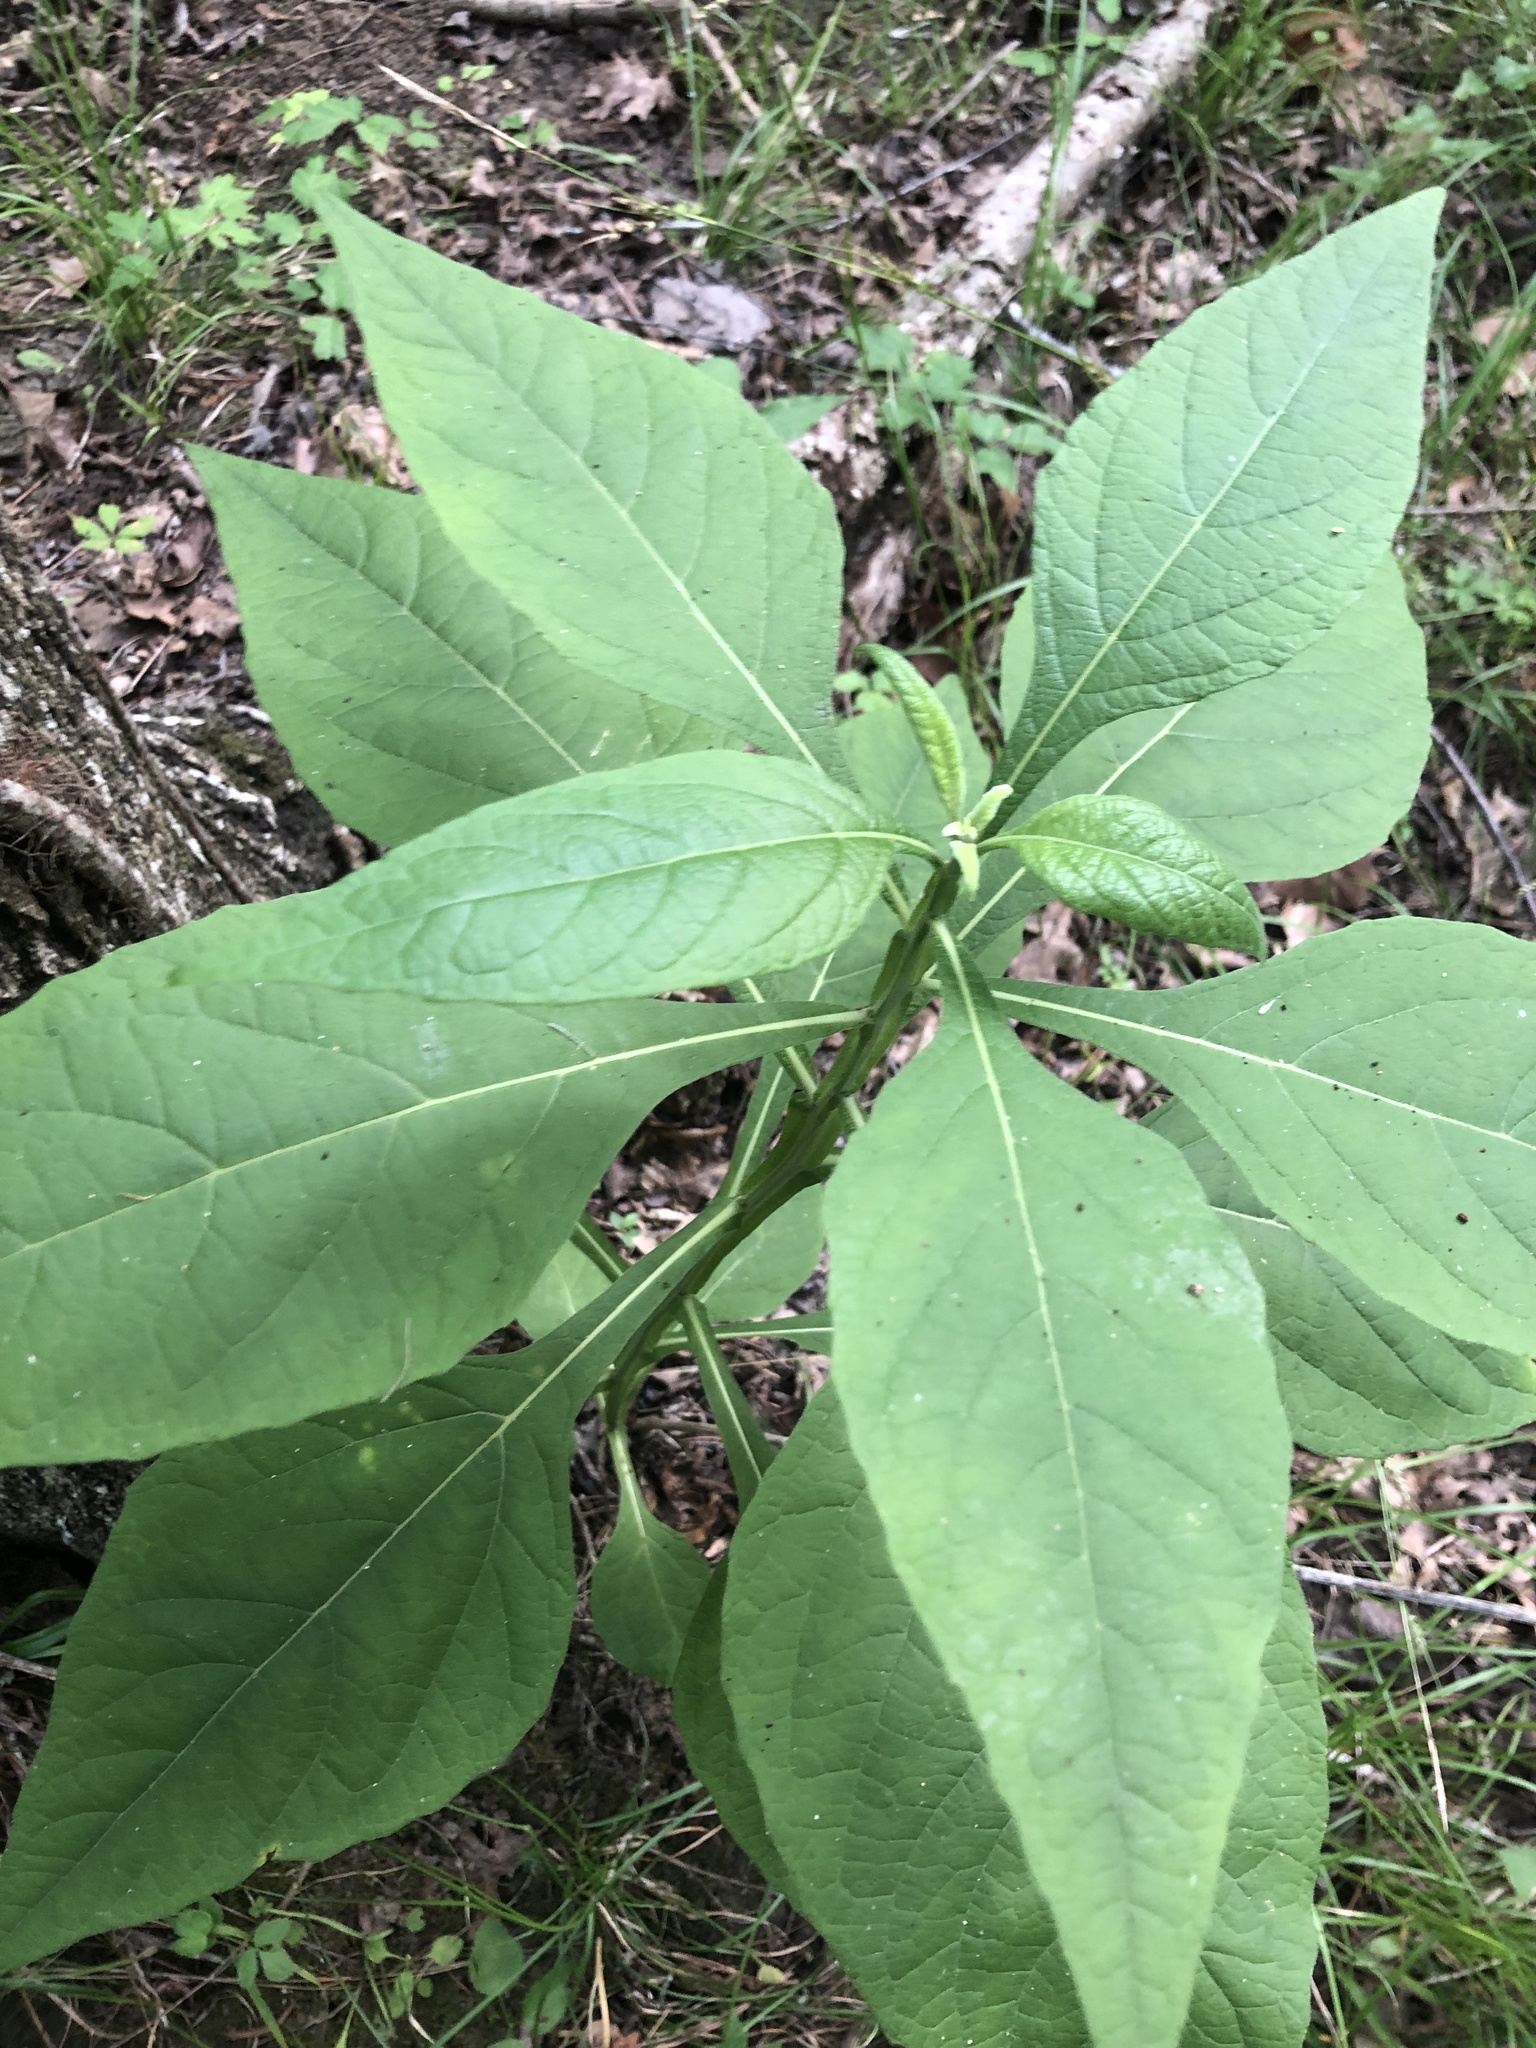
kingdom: Plantae
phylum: Tracheophyta
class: Magnoliopsida
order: Asterales
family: Asteraceae
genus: Verbesina
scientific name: Verbesina virginica
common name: Frostweed
